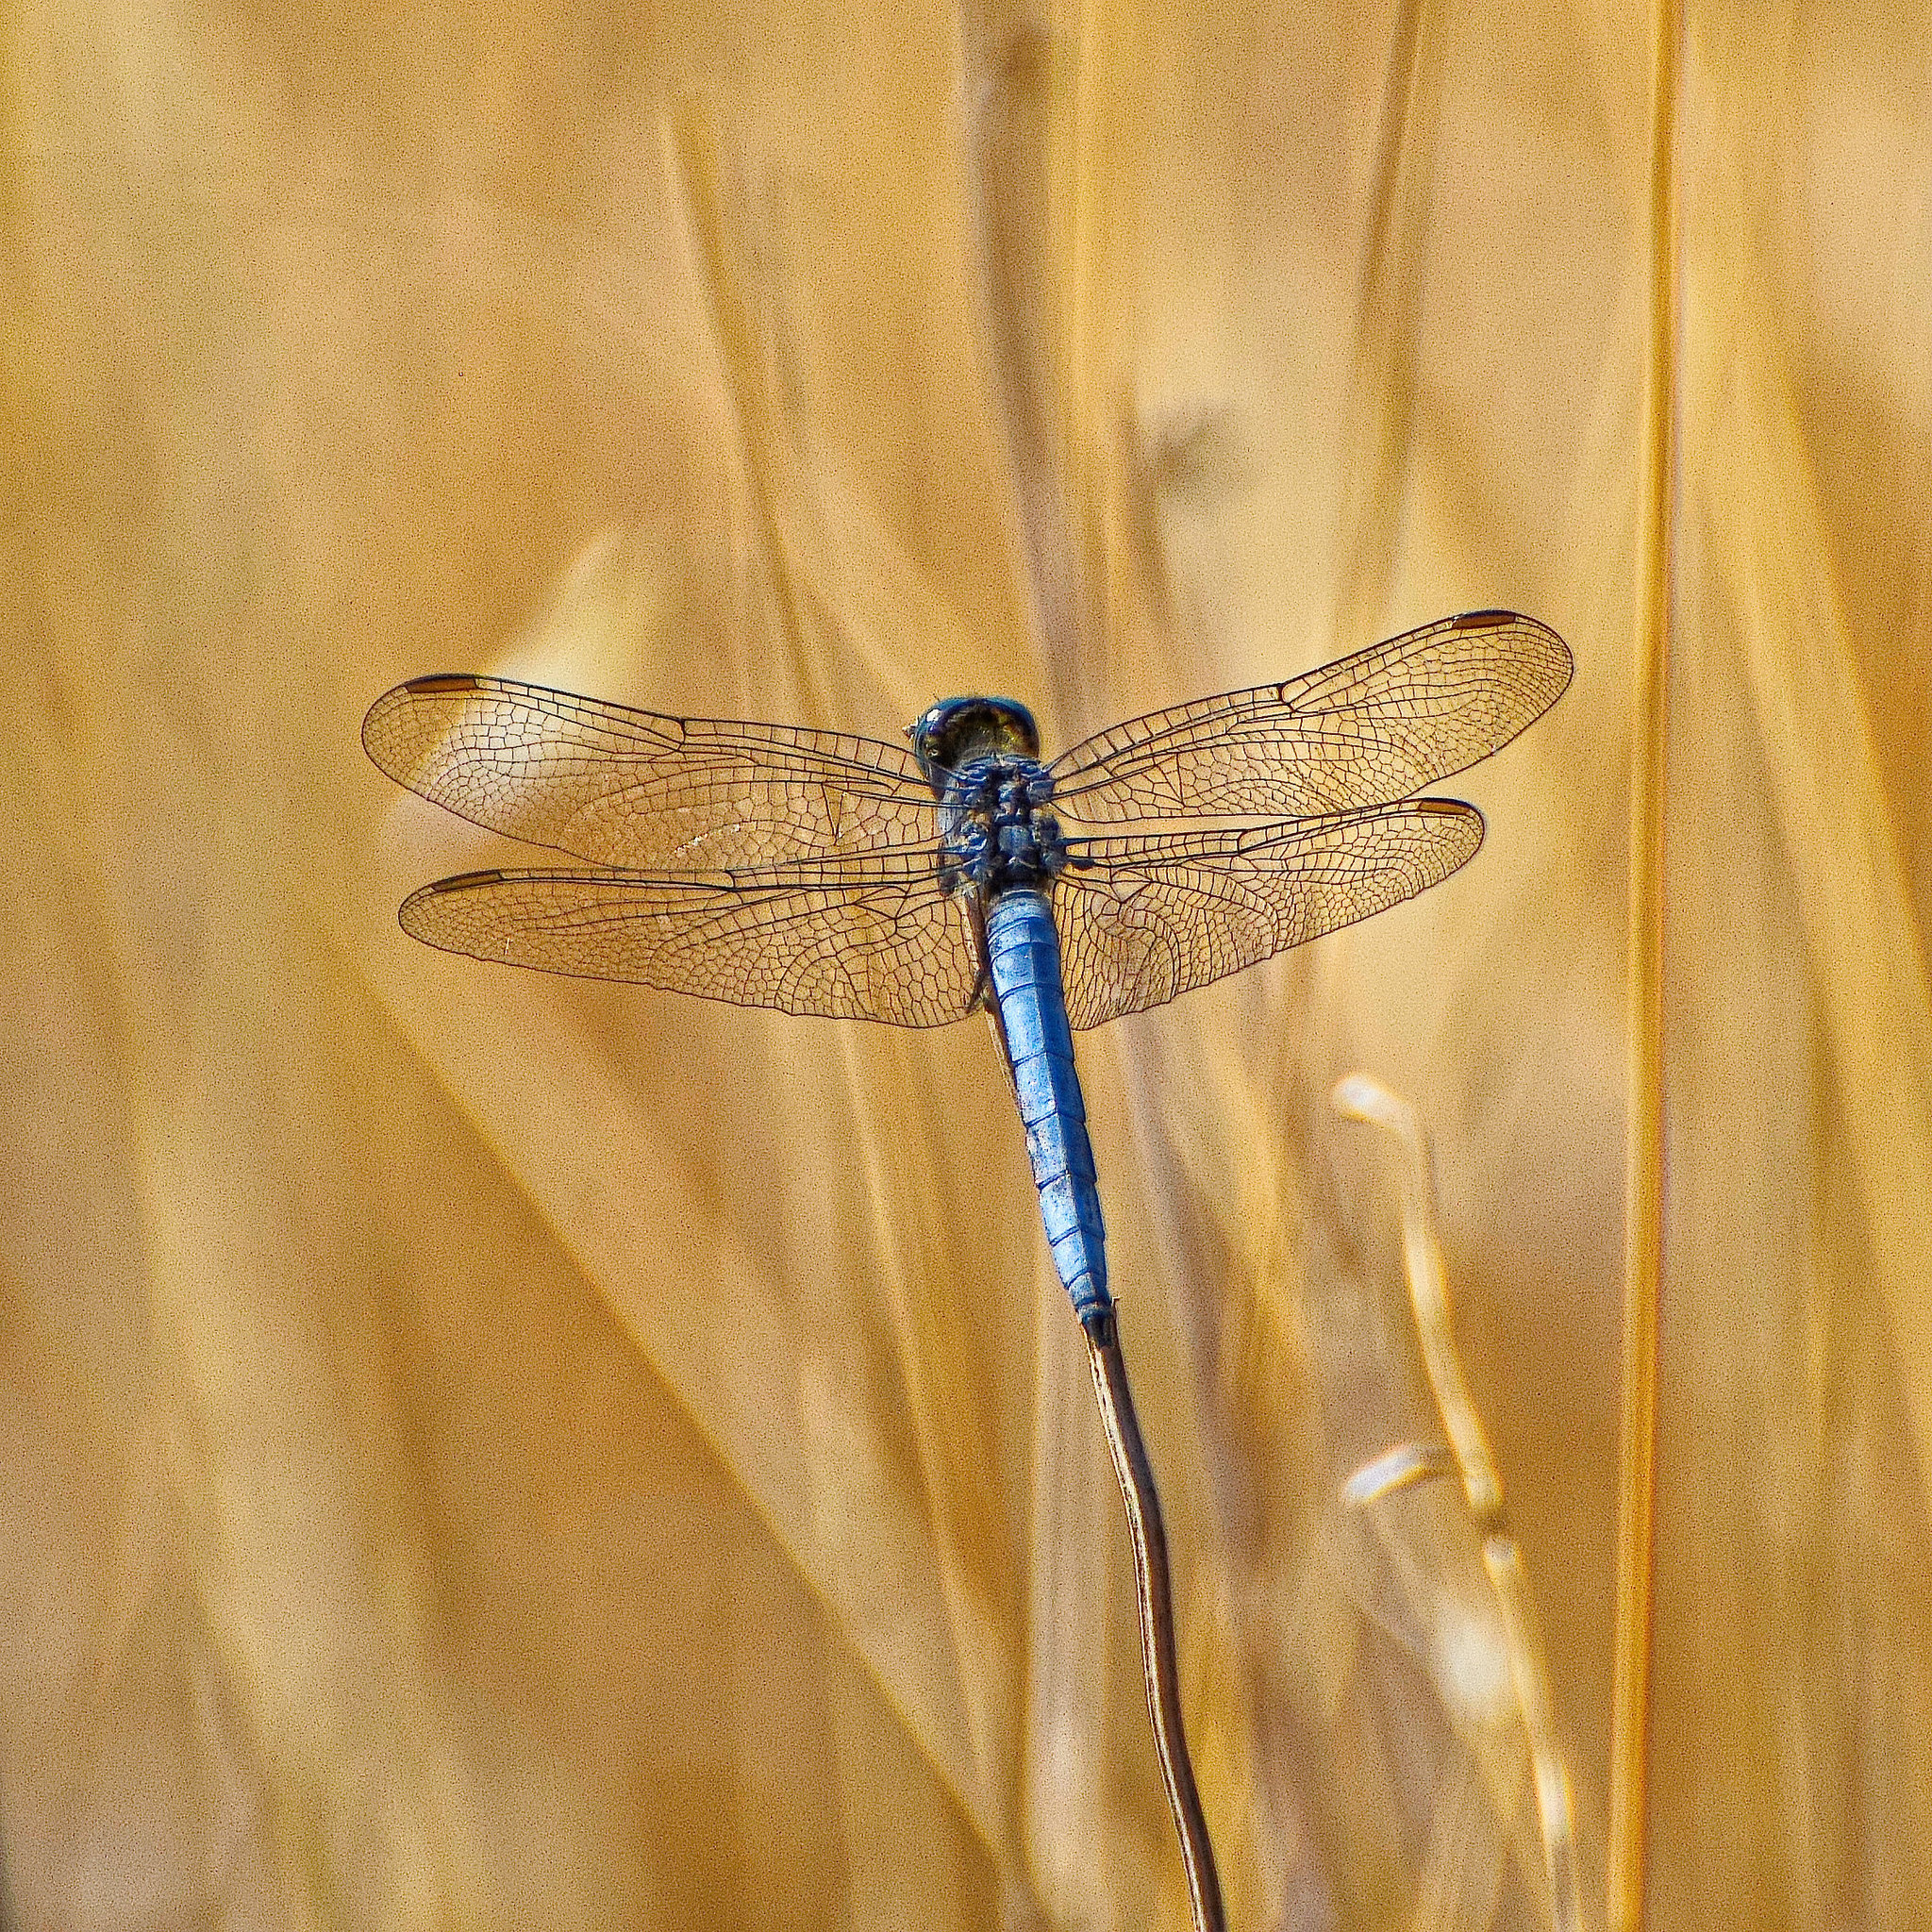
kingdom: Animalia
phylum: Arthropoda
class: Insecta
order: Odonata
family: Libellulidae
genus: Orthetrum
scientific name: Orthetrum coerulescens
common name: Keeled skimmer
